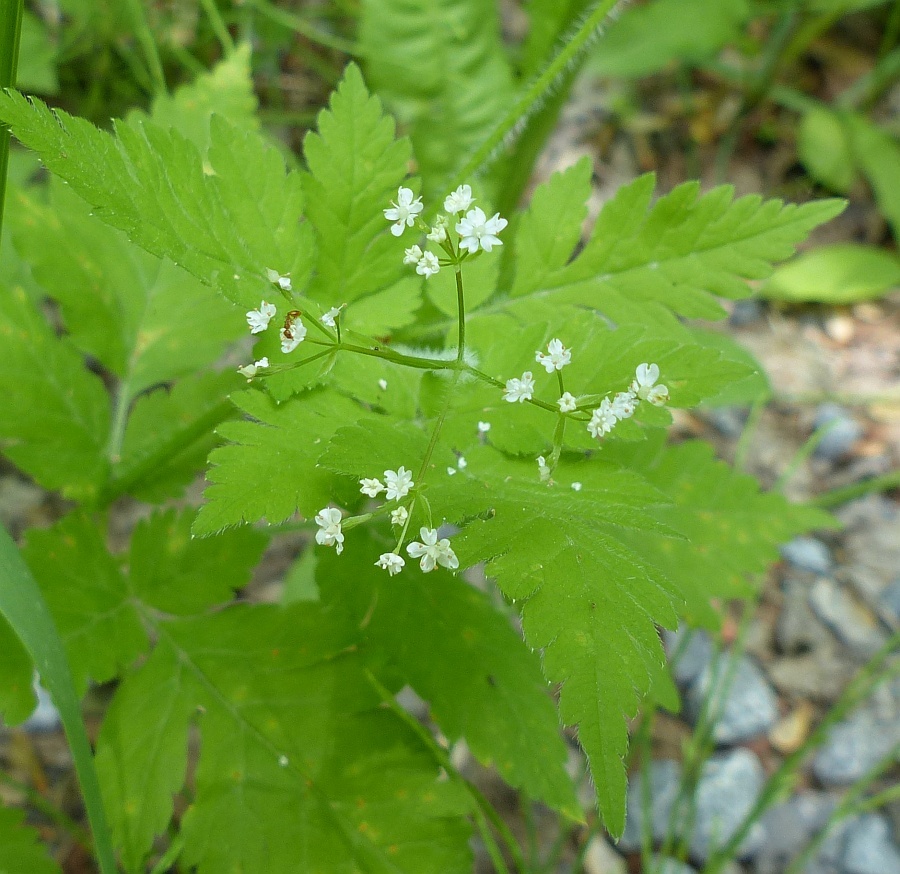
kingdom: Plantae
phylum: Tracheophyta
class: Magnoliopsida
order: Apiales
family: Apiaceae
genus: Osmorhiza
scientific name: Osmorhiza claytonii
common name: Hairy sweet cicely
